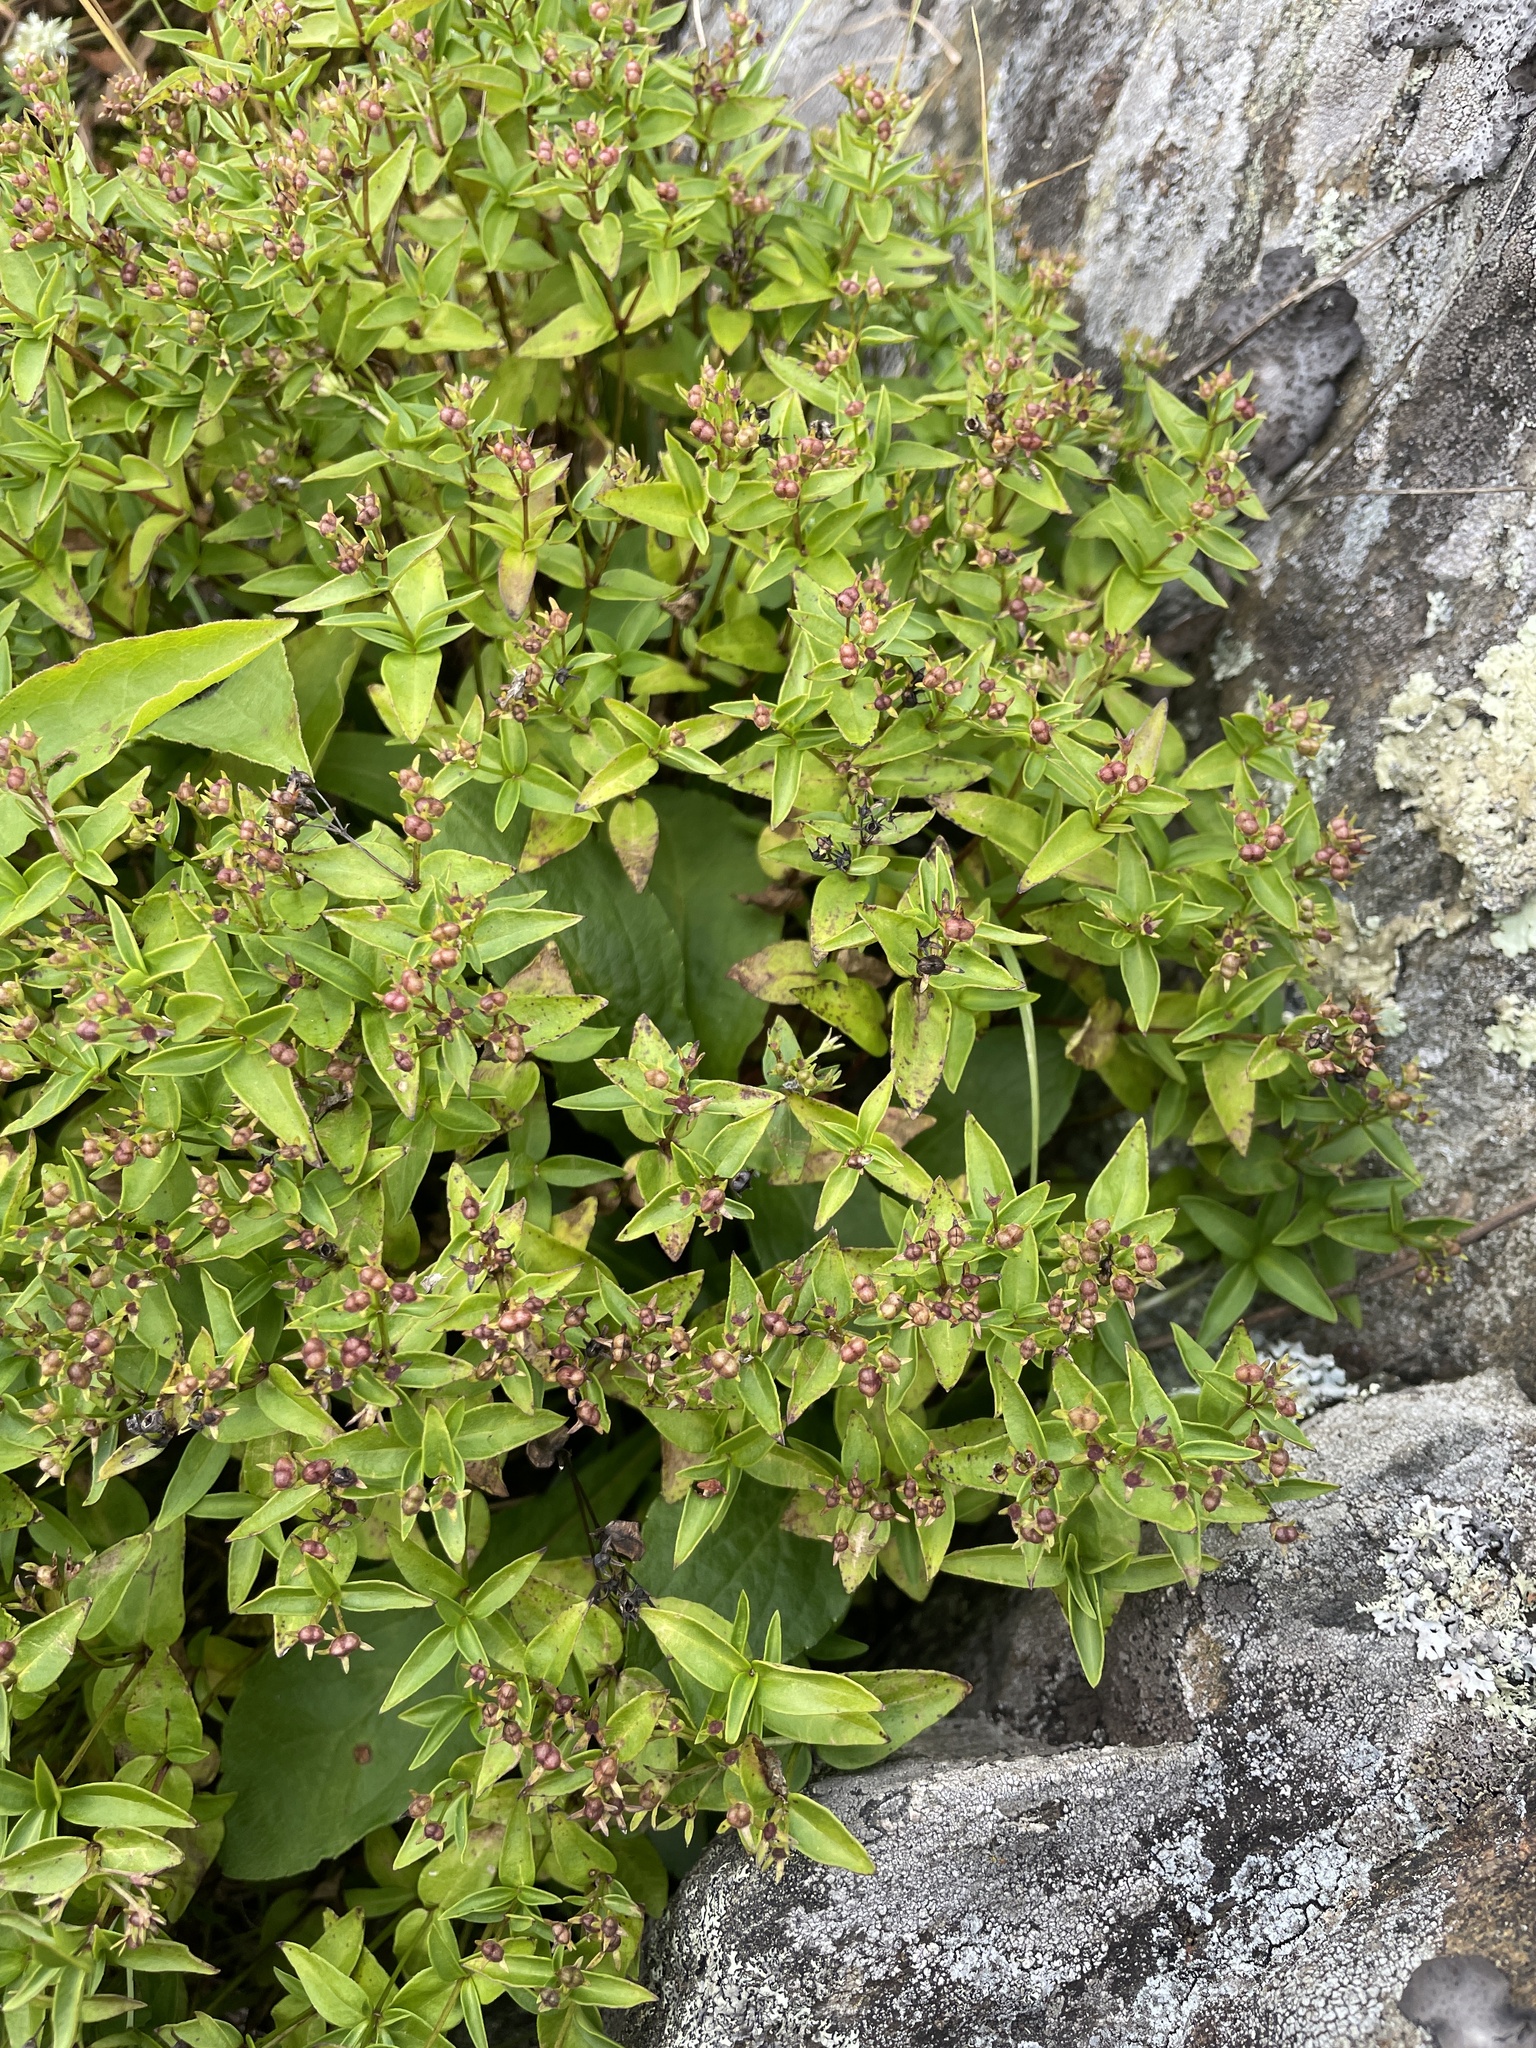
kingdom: Plantae
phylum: Tracheophyta
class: Magnoliopsida
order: Gentianales
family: Rubiaceae
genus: Houstonia
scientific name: Houstonia purpurea
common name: Summer bluet
